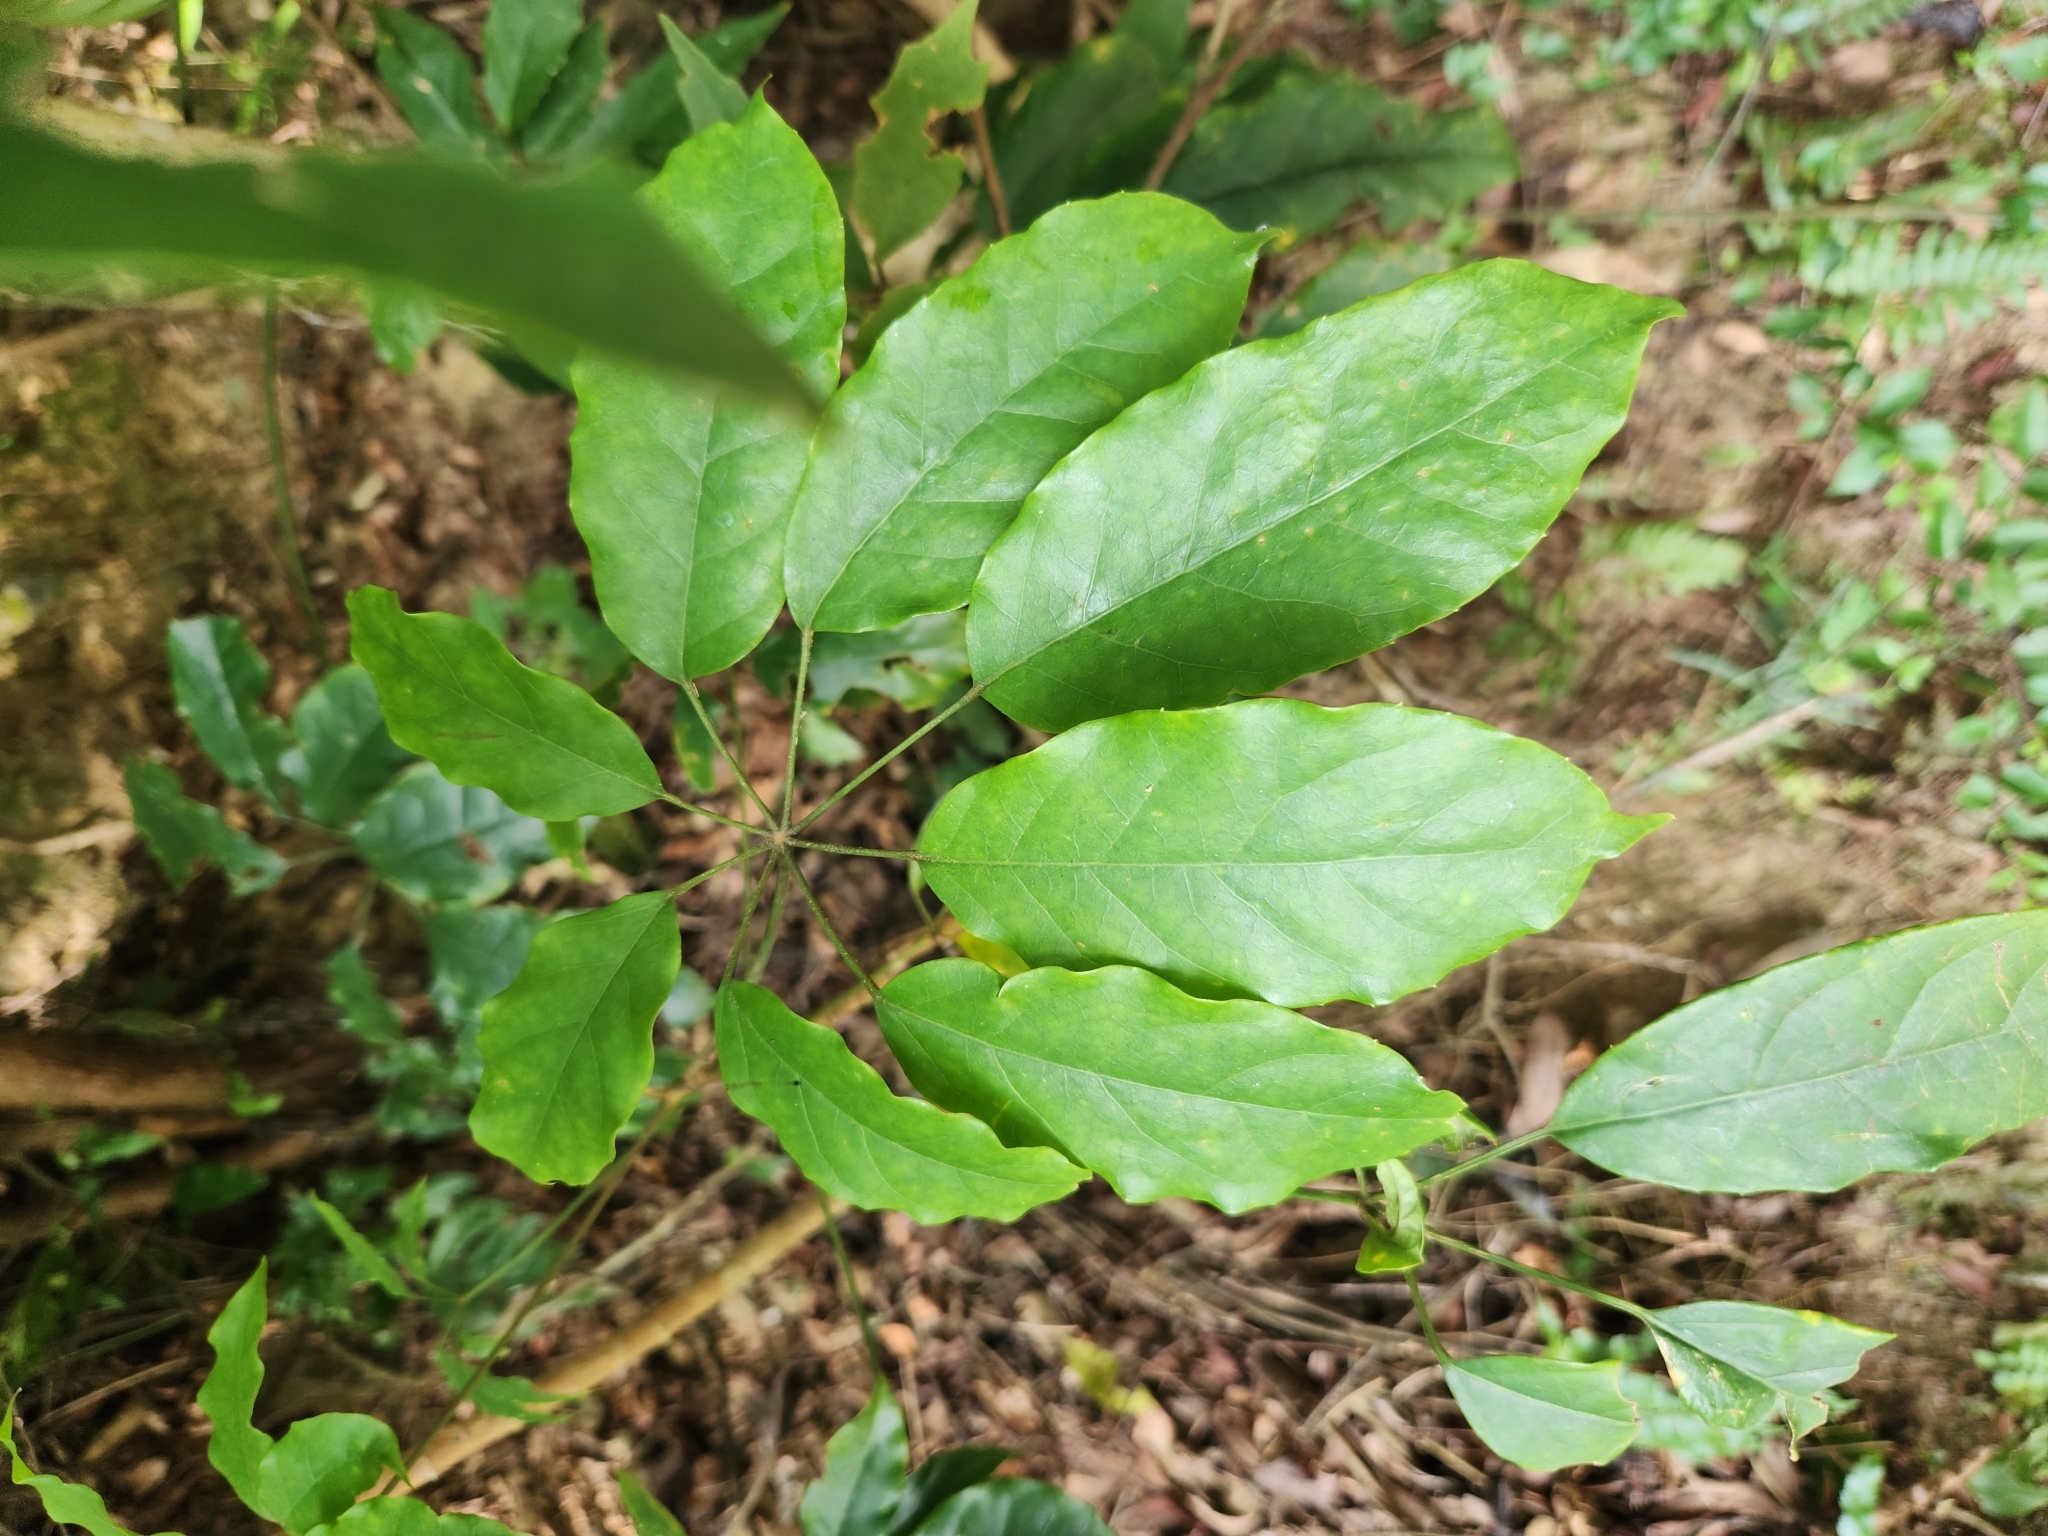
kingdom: Plantae
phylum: Tracheophyta
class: Magnoliopsida
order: Apiales
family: Araliaceae
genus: Heptapleurum
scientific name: Heptapleurum heptaphyllum
